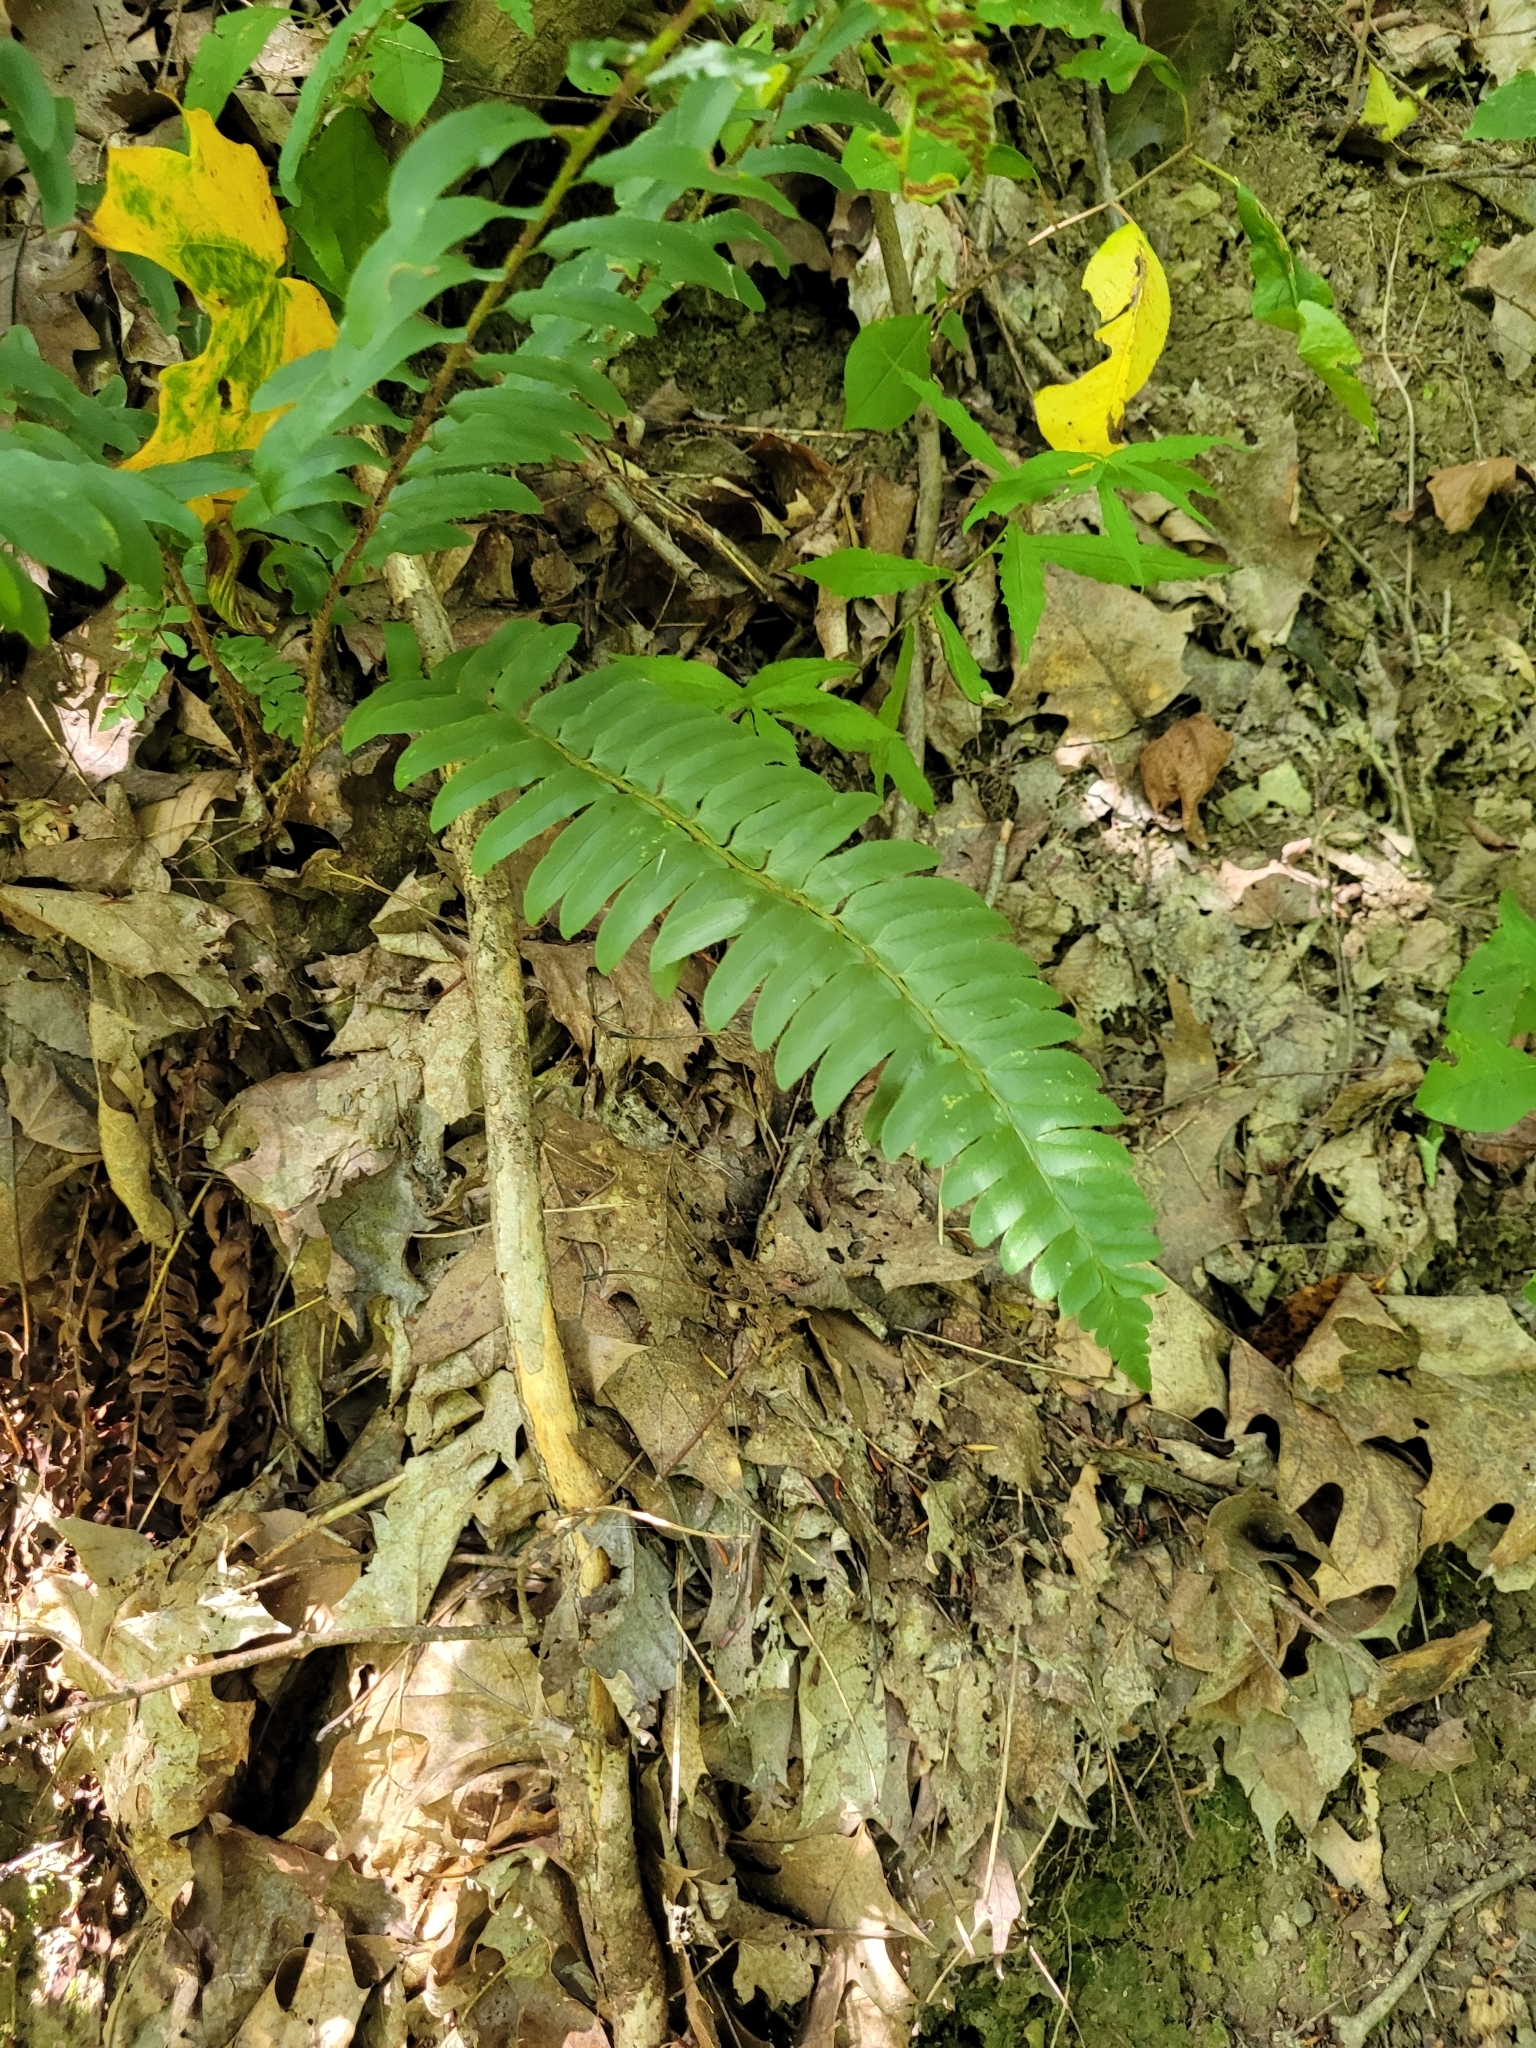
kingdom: Plantae
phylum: Tracheophyta
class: Polypodiopsida
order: Polypodiales
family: Dryopteridaceae
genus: Polystichum
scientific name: Polystichum acrostichoides
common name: Christmas fern
